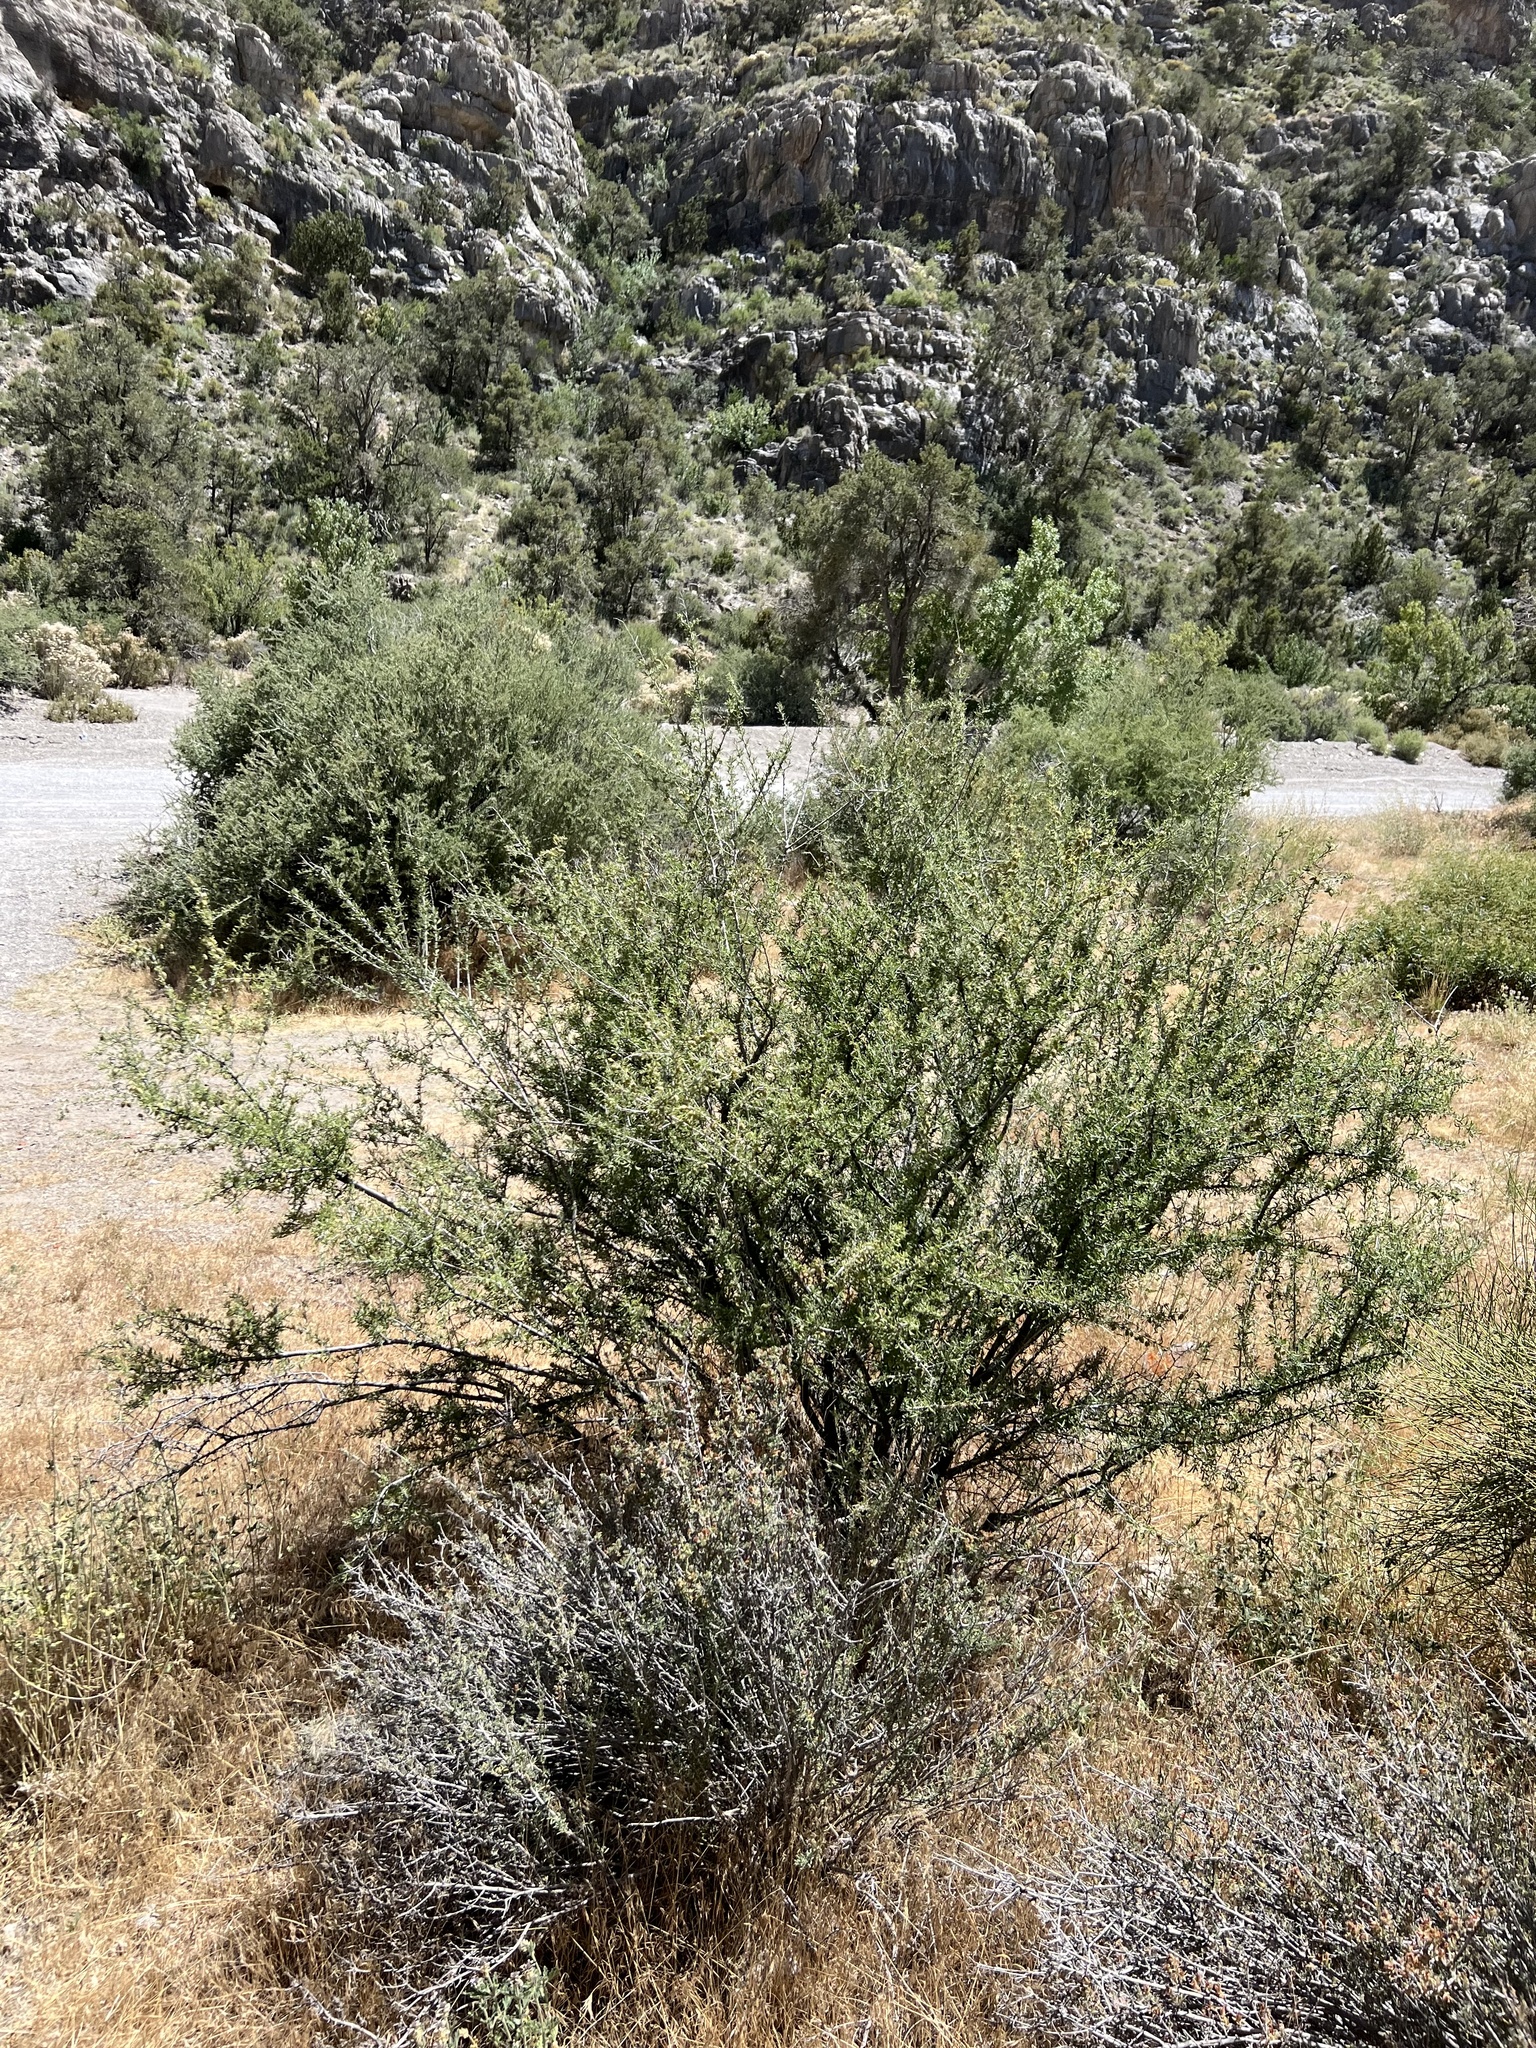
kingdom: Plantae
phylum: Tracheophyta
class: Magnoliopsida
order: Rosales
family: Rosaceae
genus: Prunus
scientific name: Prunus fasciculata
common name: Desert almond
